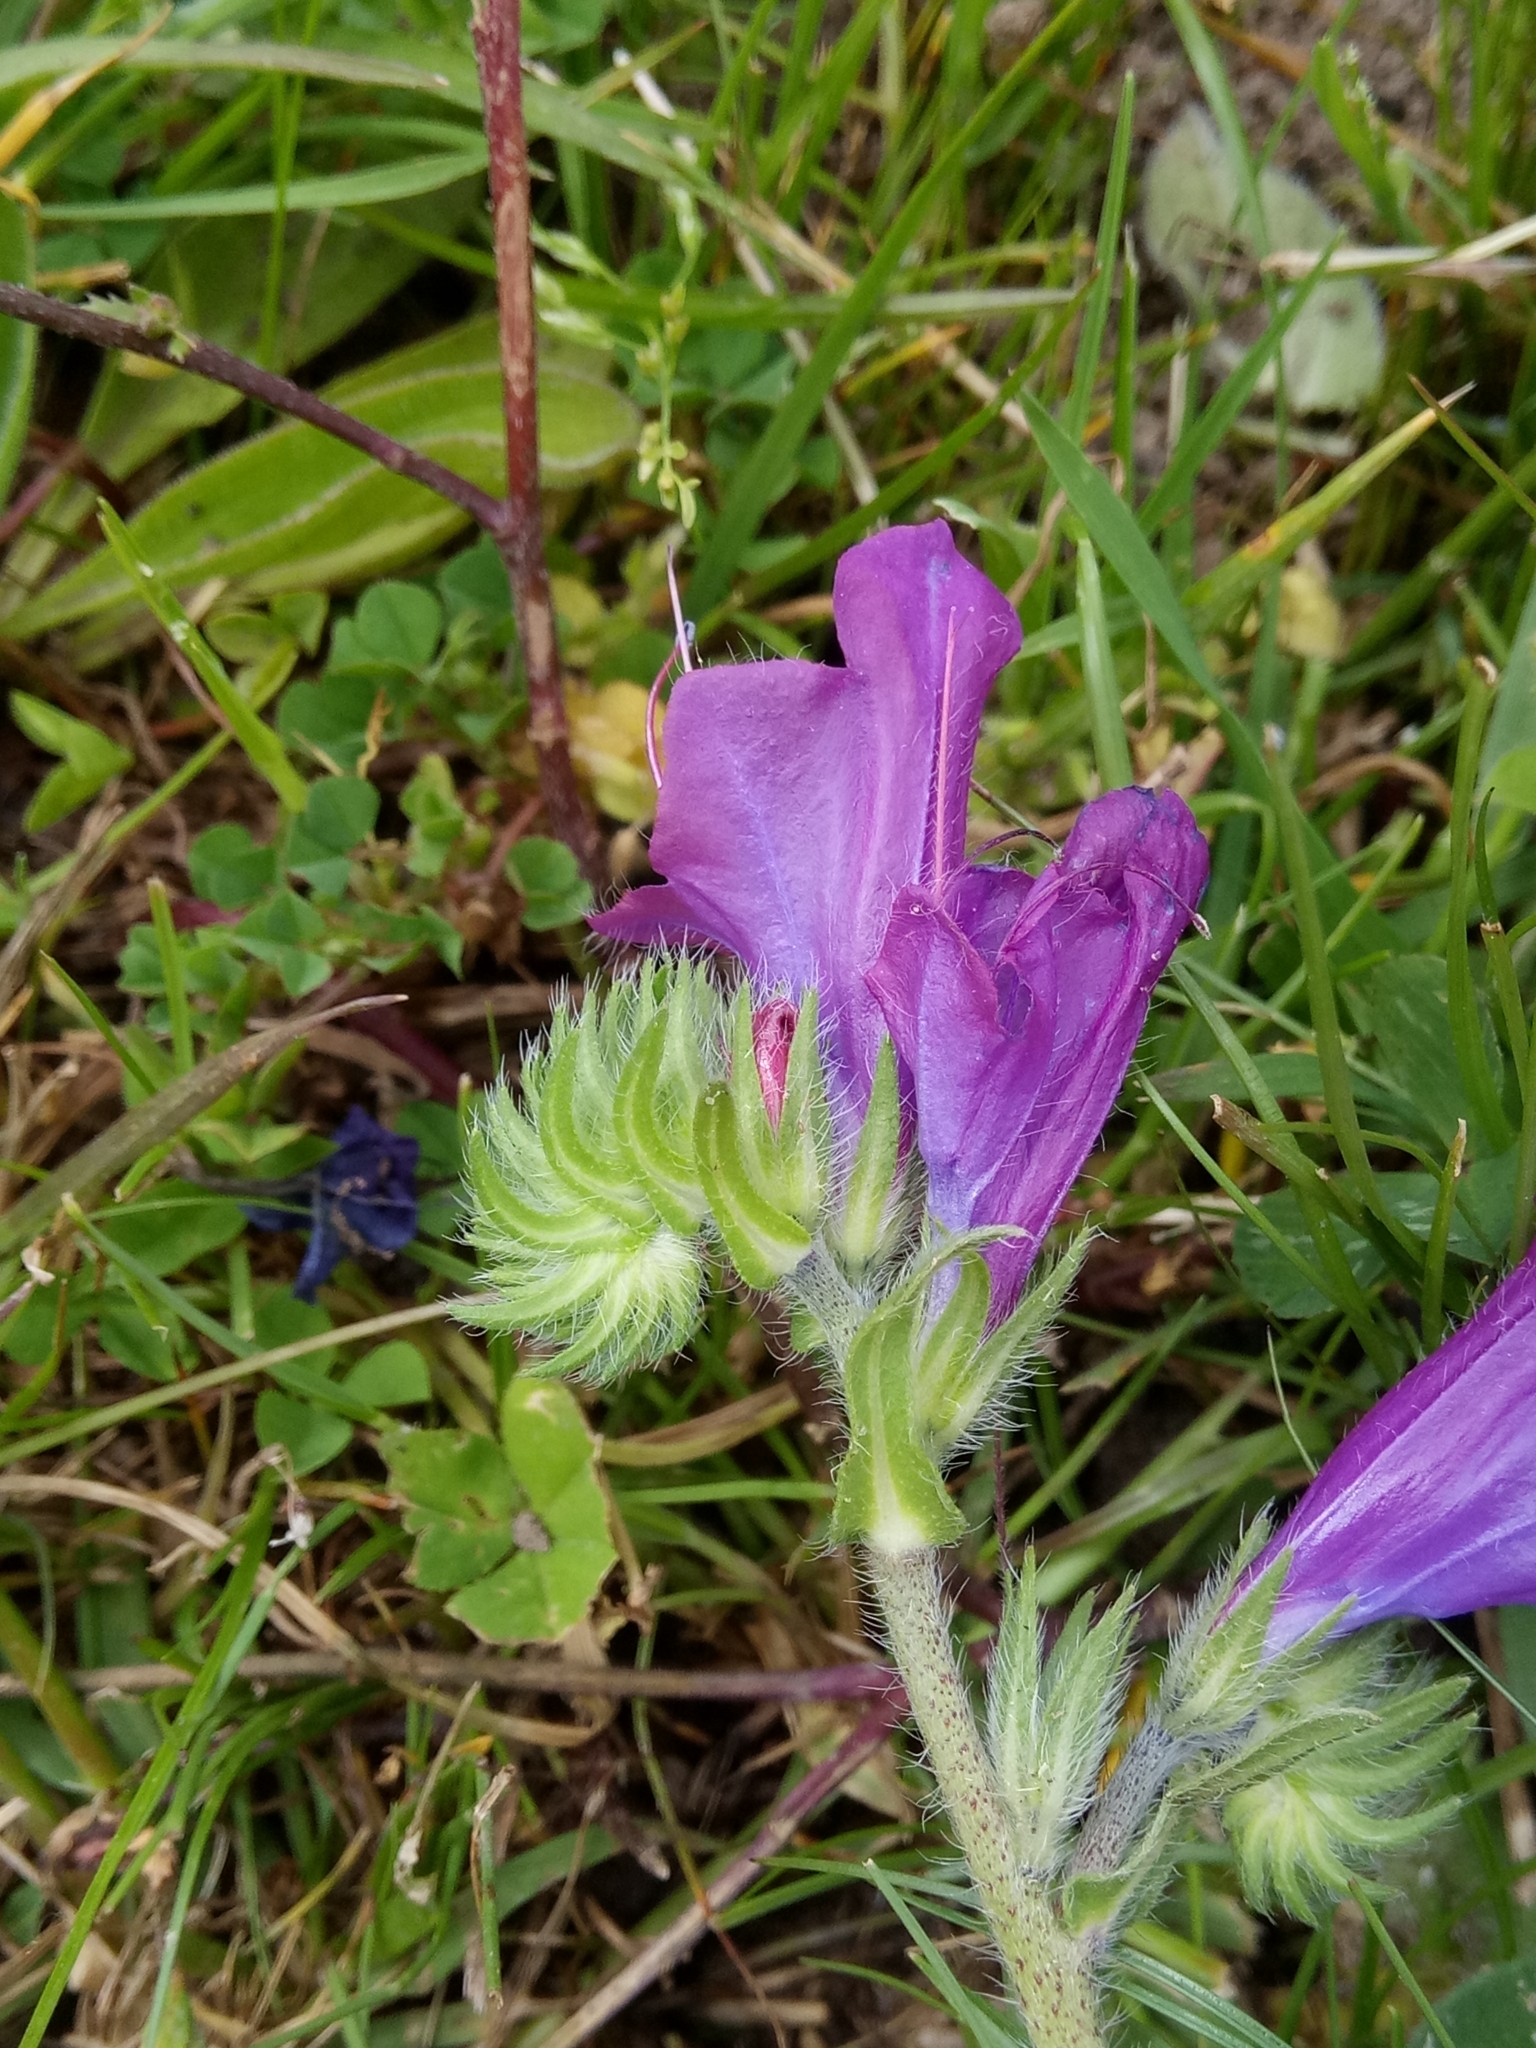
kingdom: Plantae
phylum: Tracheophyta
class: Magnoliopsida
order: Boraginales
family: Boraginaceae
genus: Echium
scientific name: Echium plantagineum
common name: Purple viper's-bugloss
